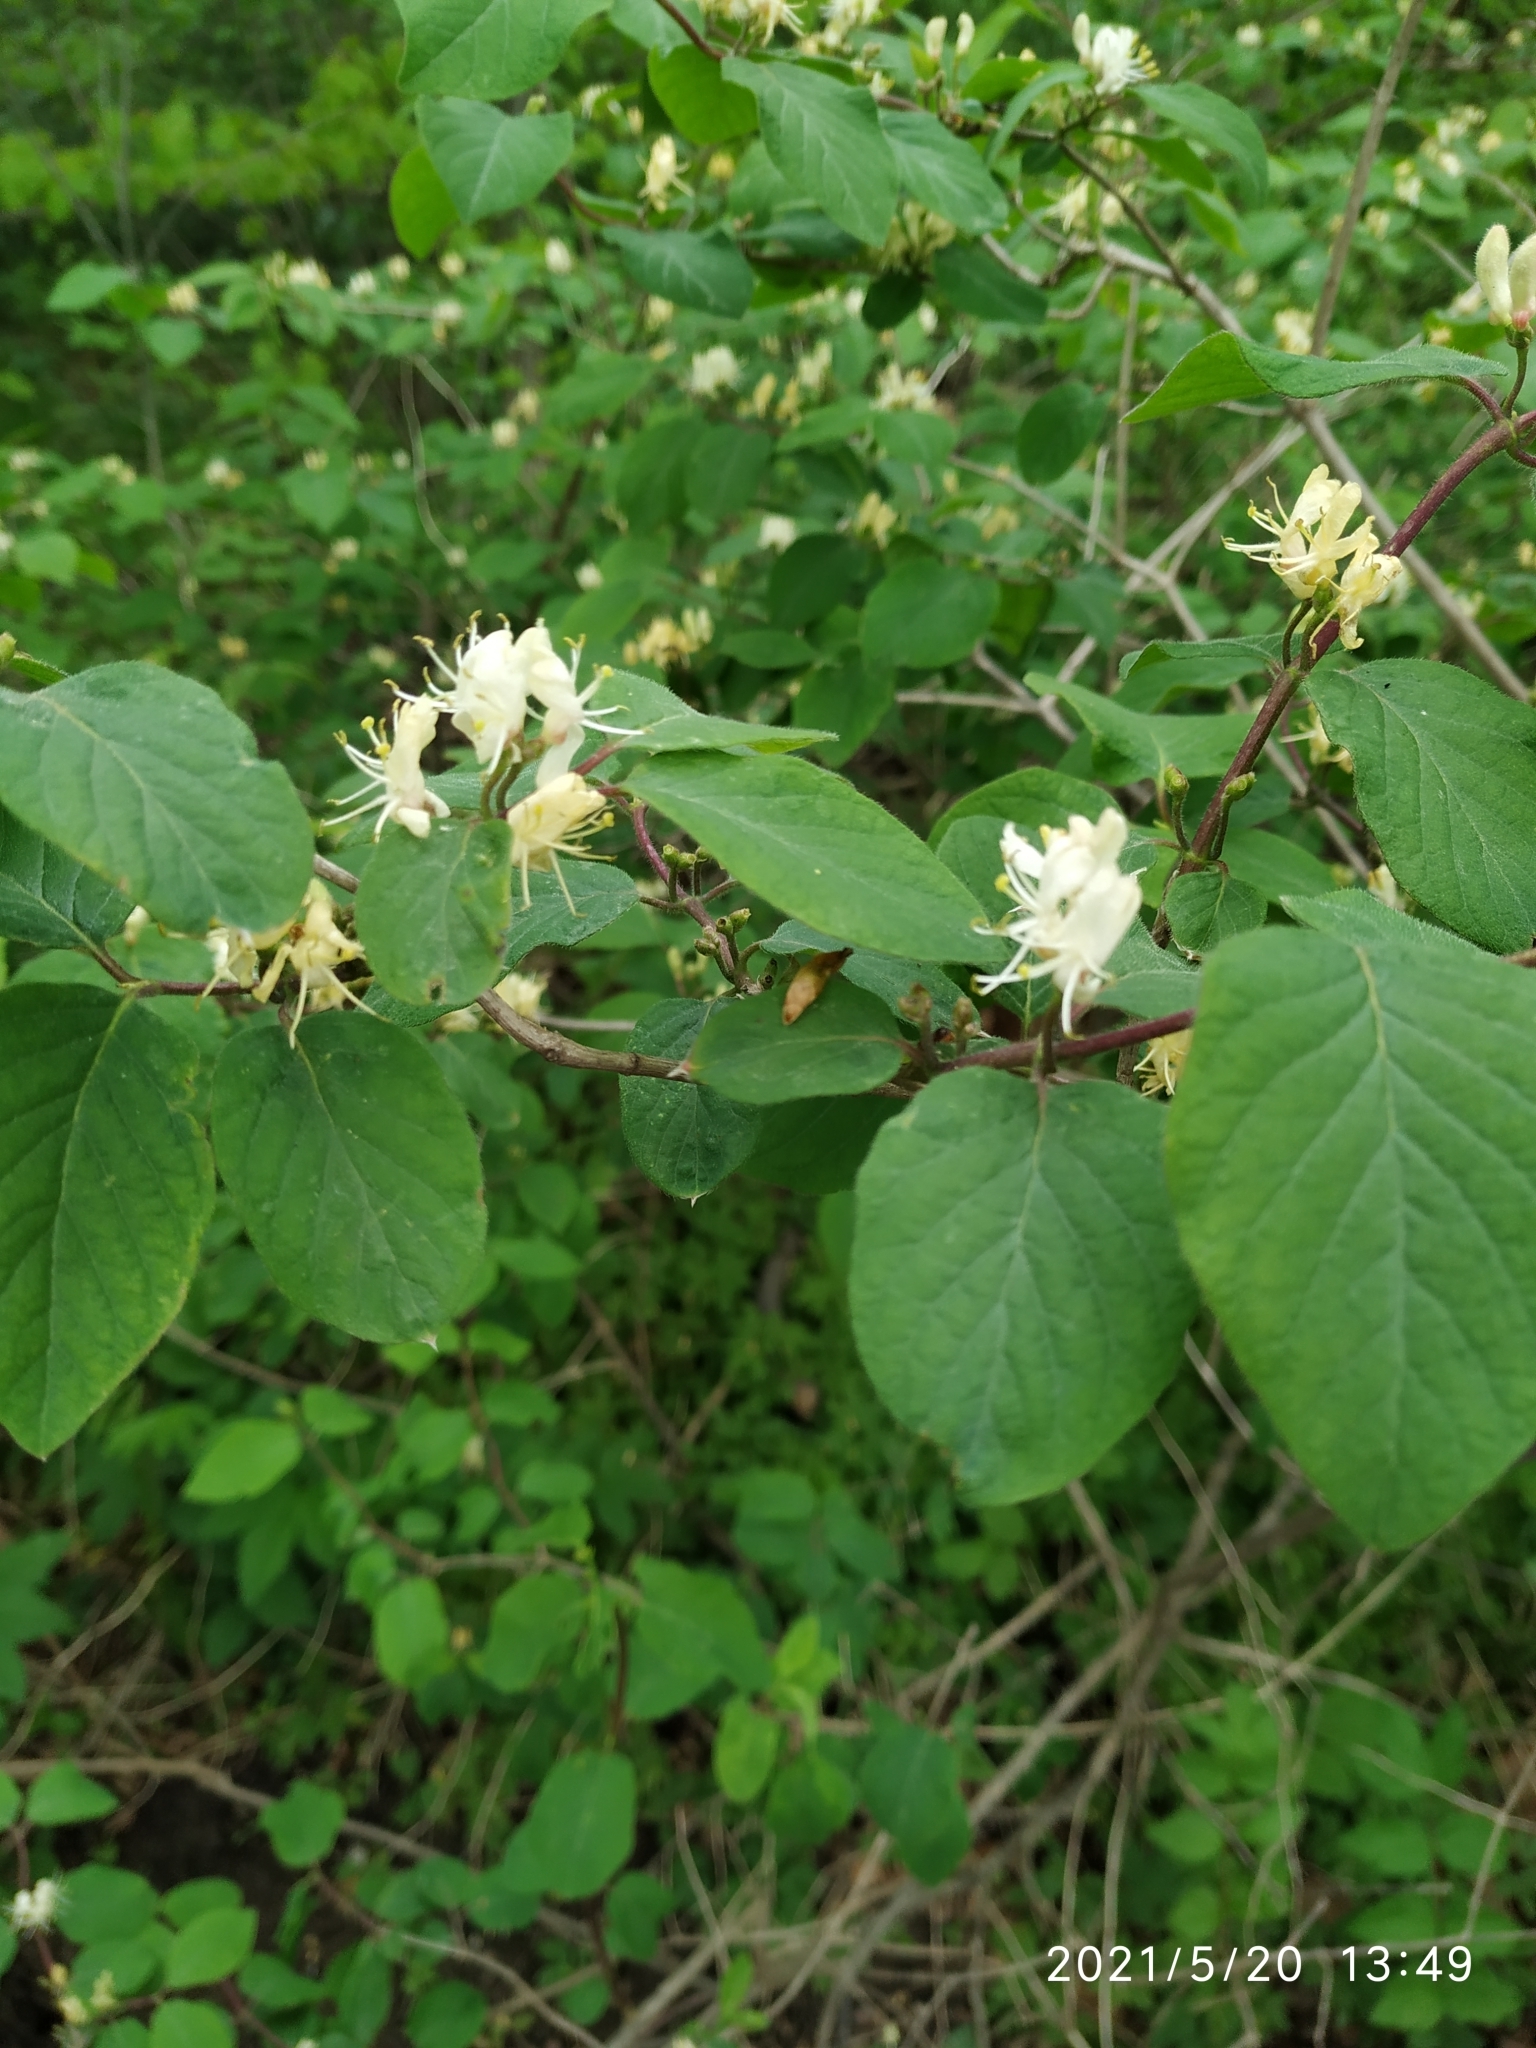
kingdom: Plantae
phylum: Tracheophyta
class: Magnoliopsida
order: Dipsacales
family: Caprifoliaceae
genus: Lonicera
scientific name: Lonicera xylosteum
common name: Fly honeysuckle
